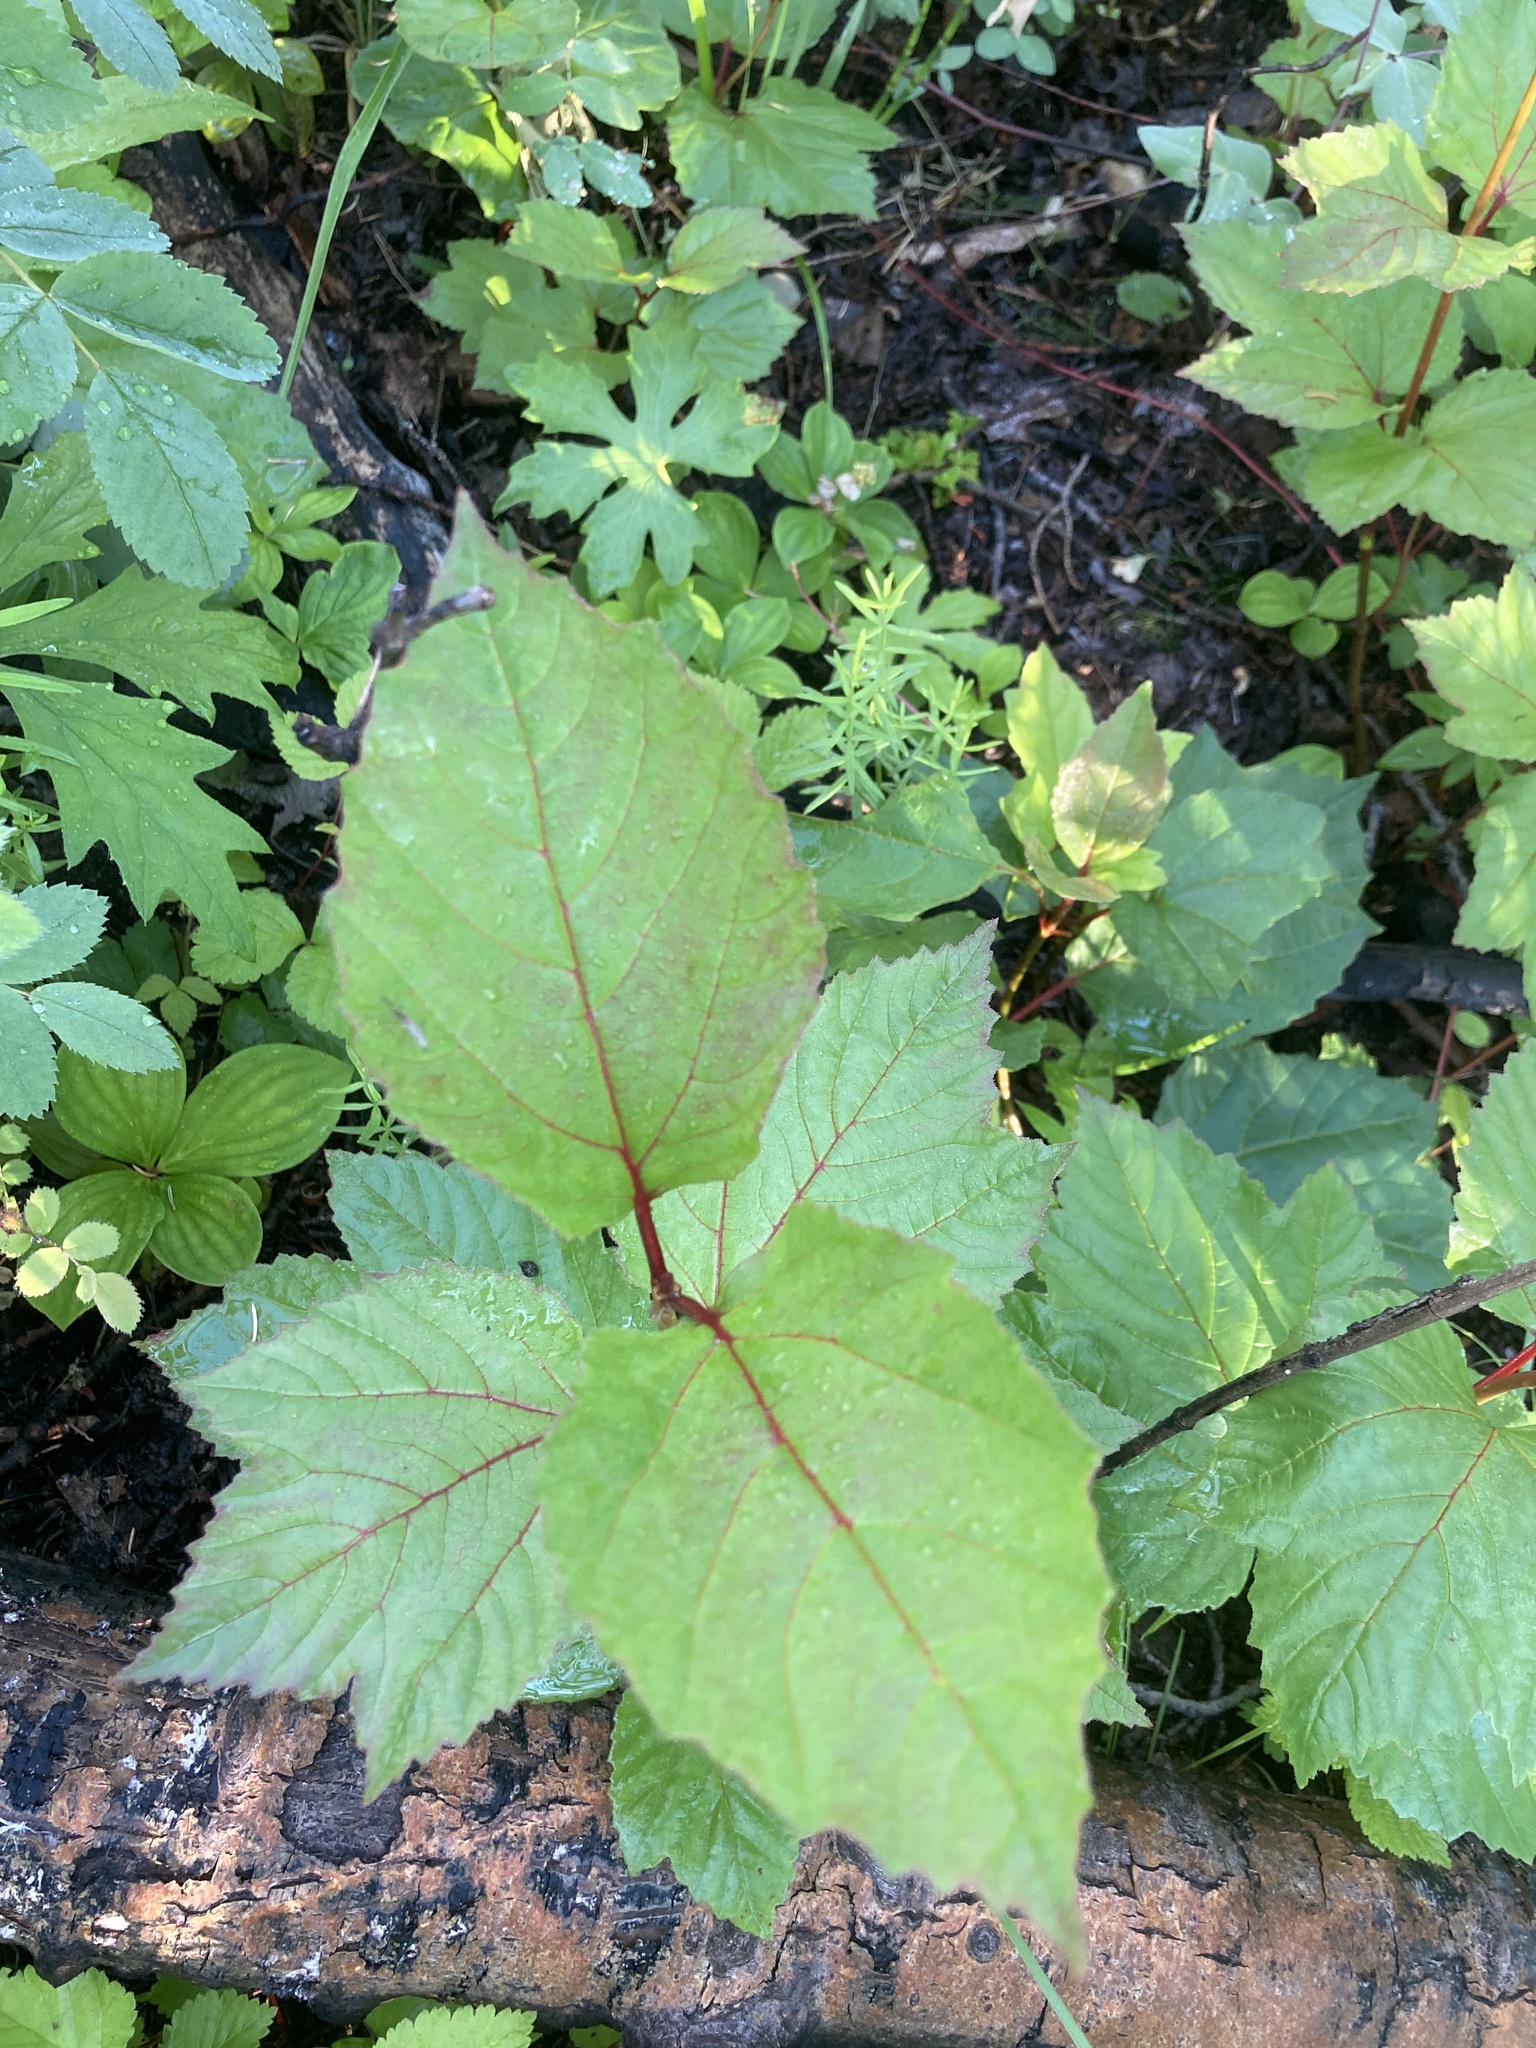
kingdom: Plantae
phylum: Tracheophyta
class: Magnoliopsida
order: Dipsacales
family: Viburnaceae
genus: Viburnum
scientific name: Viburnum edule
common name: Mooseberry
